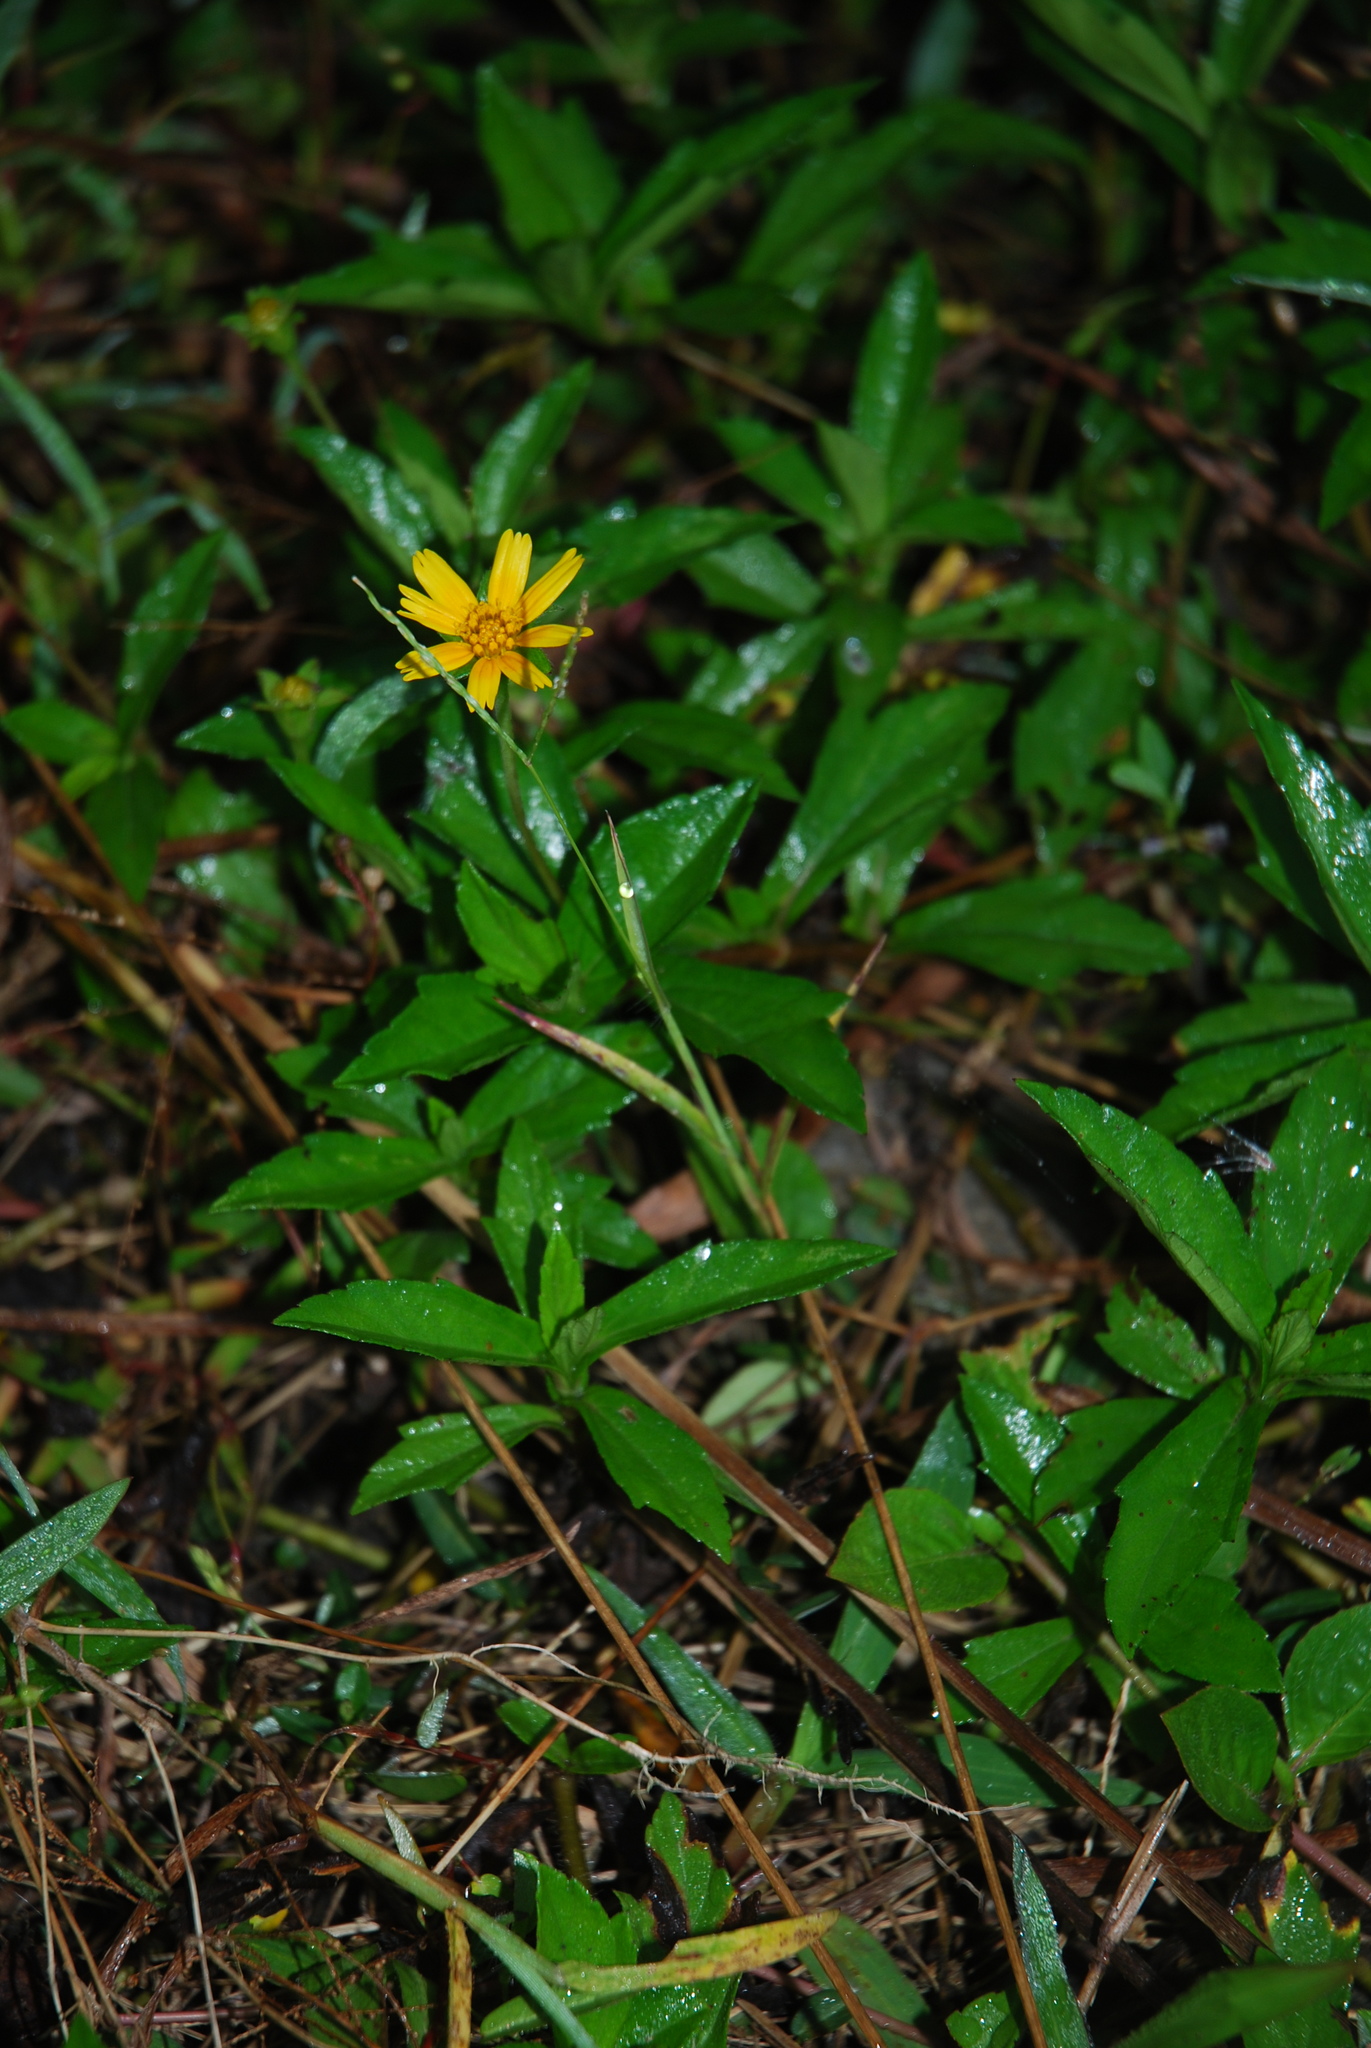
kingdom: Plantae
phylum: Tracheophyta
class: Magnoliopsida
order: Asterales
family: Asteraceae
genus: Sphagneticola
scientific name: Sphagneticola trilobata
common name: Bay biscayne creeping-oxeye
